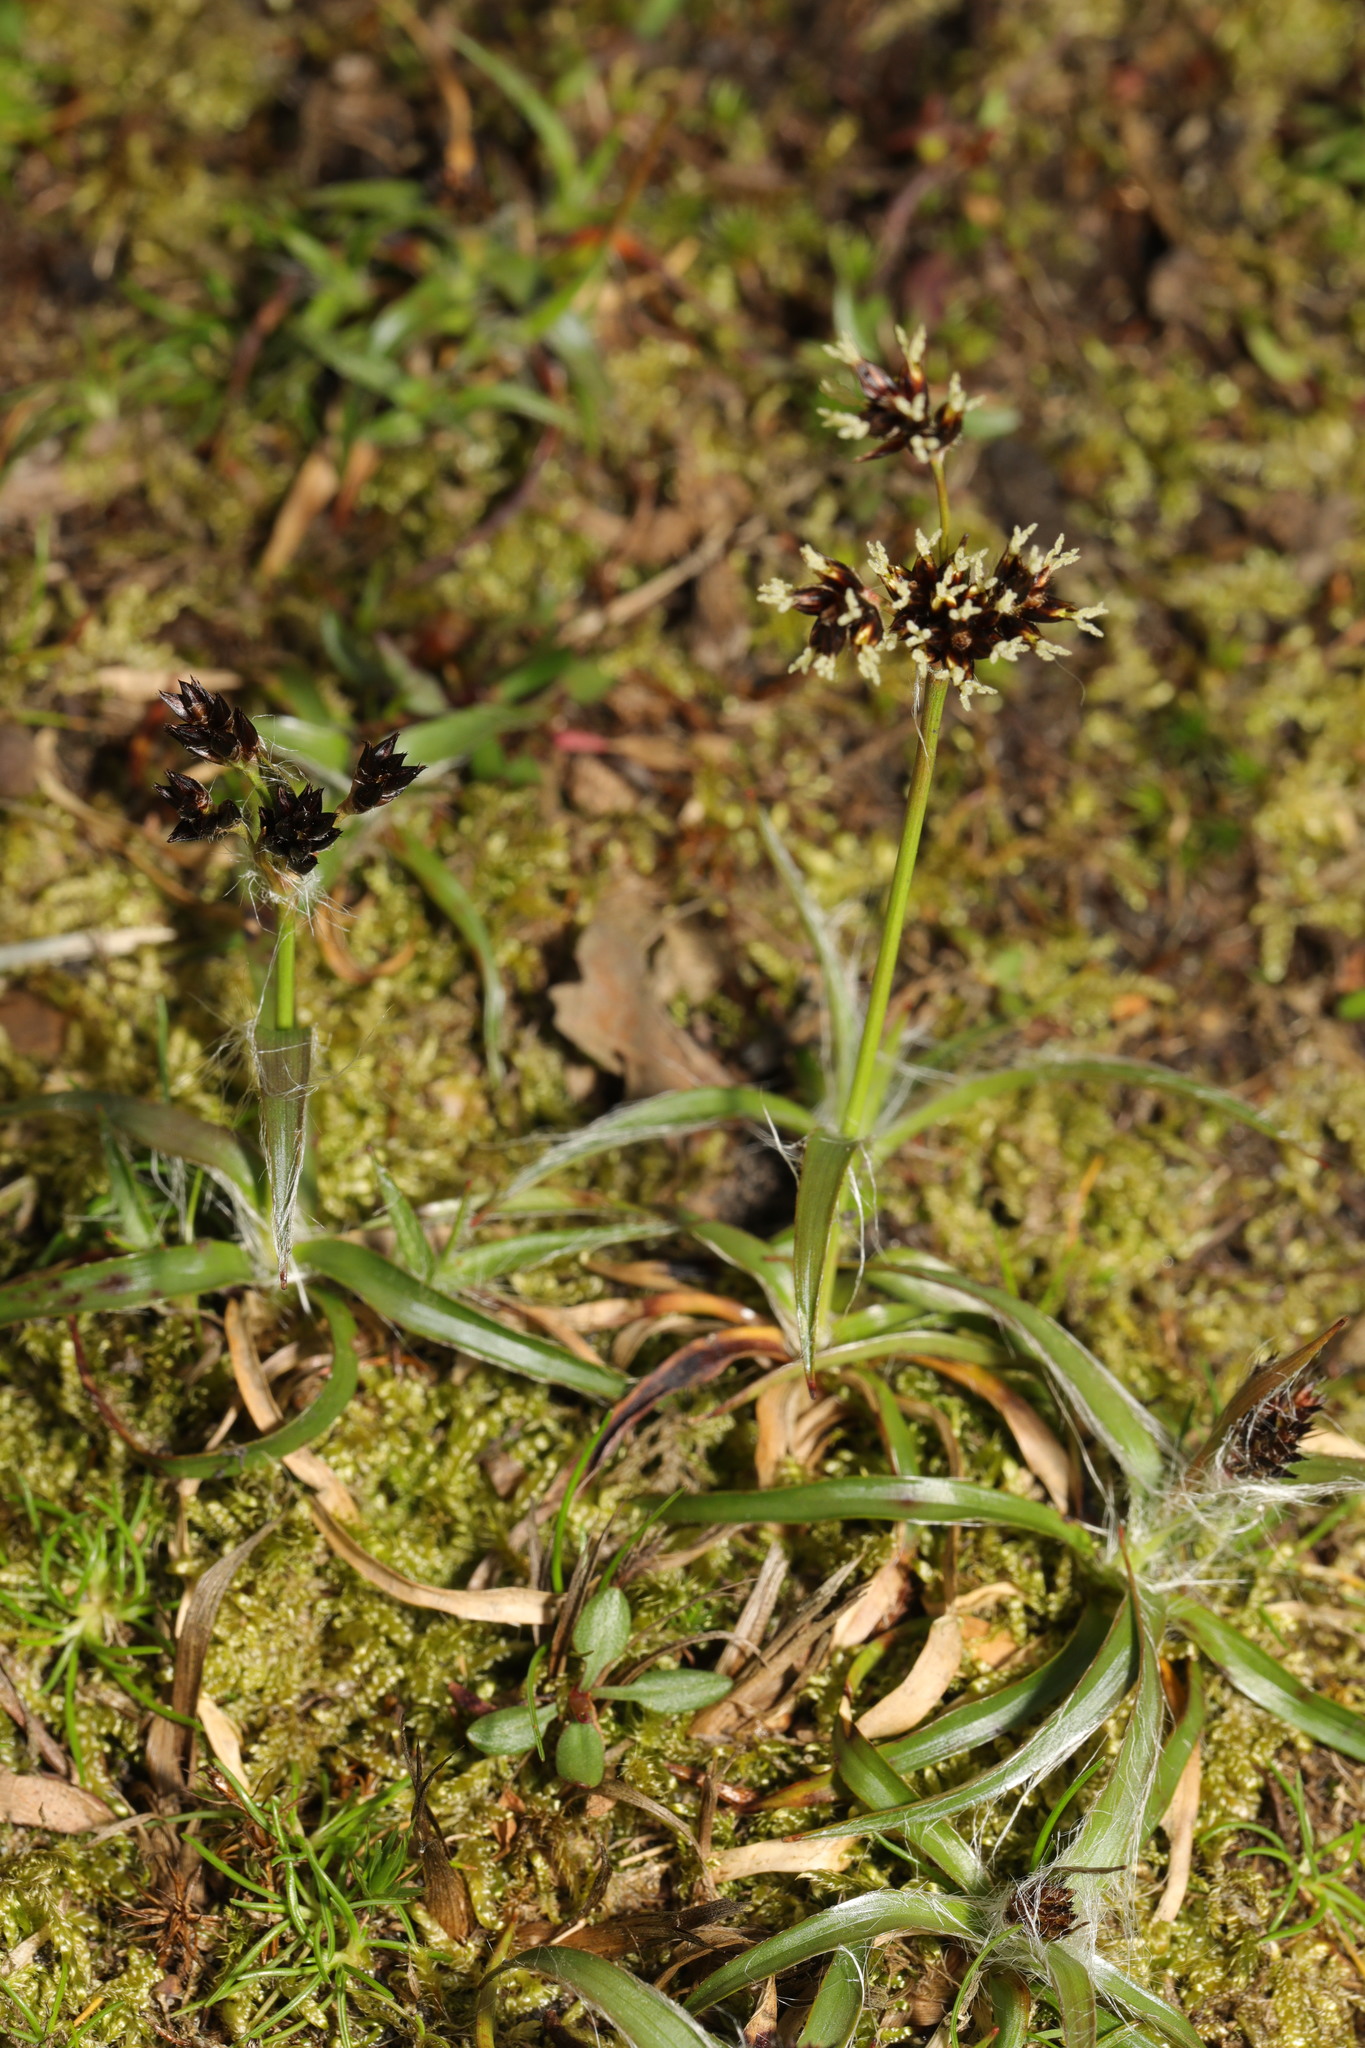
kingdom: Plantae
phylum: Tracheophyta
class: Liliopsida
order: Poales
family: Juncaceae
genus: Luzula
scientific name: Luzula campestris
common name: Field wood-rush
